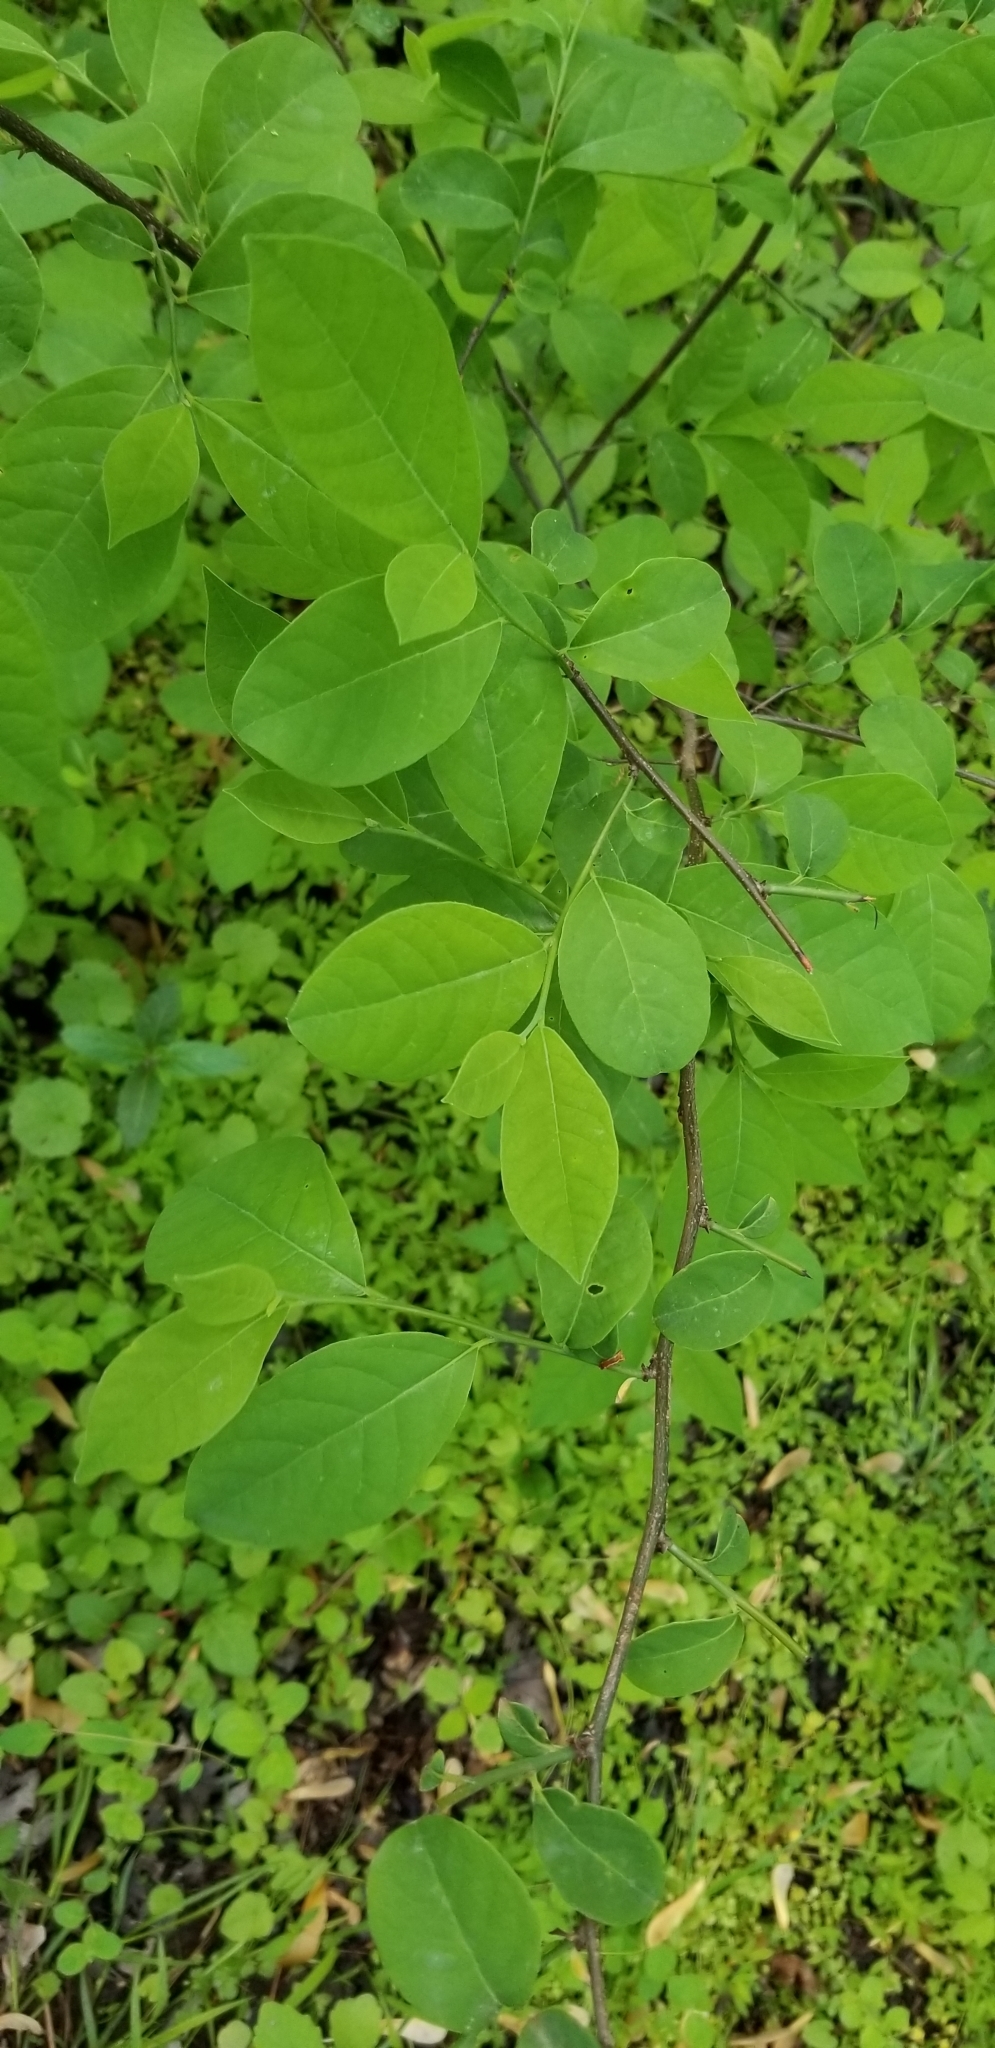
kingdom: Plantae
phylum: Tracheophyta
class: Magnoliopsida
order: Laurales
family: Lauraceae
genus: Lindera
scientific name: Lindera benzoin
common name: Spicebush
